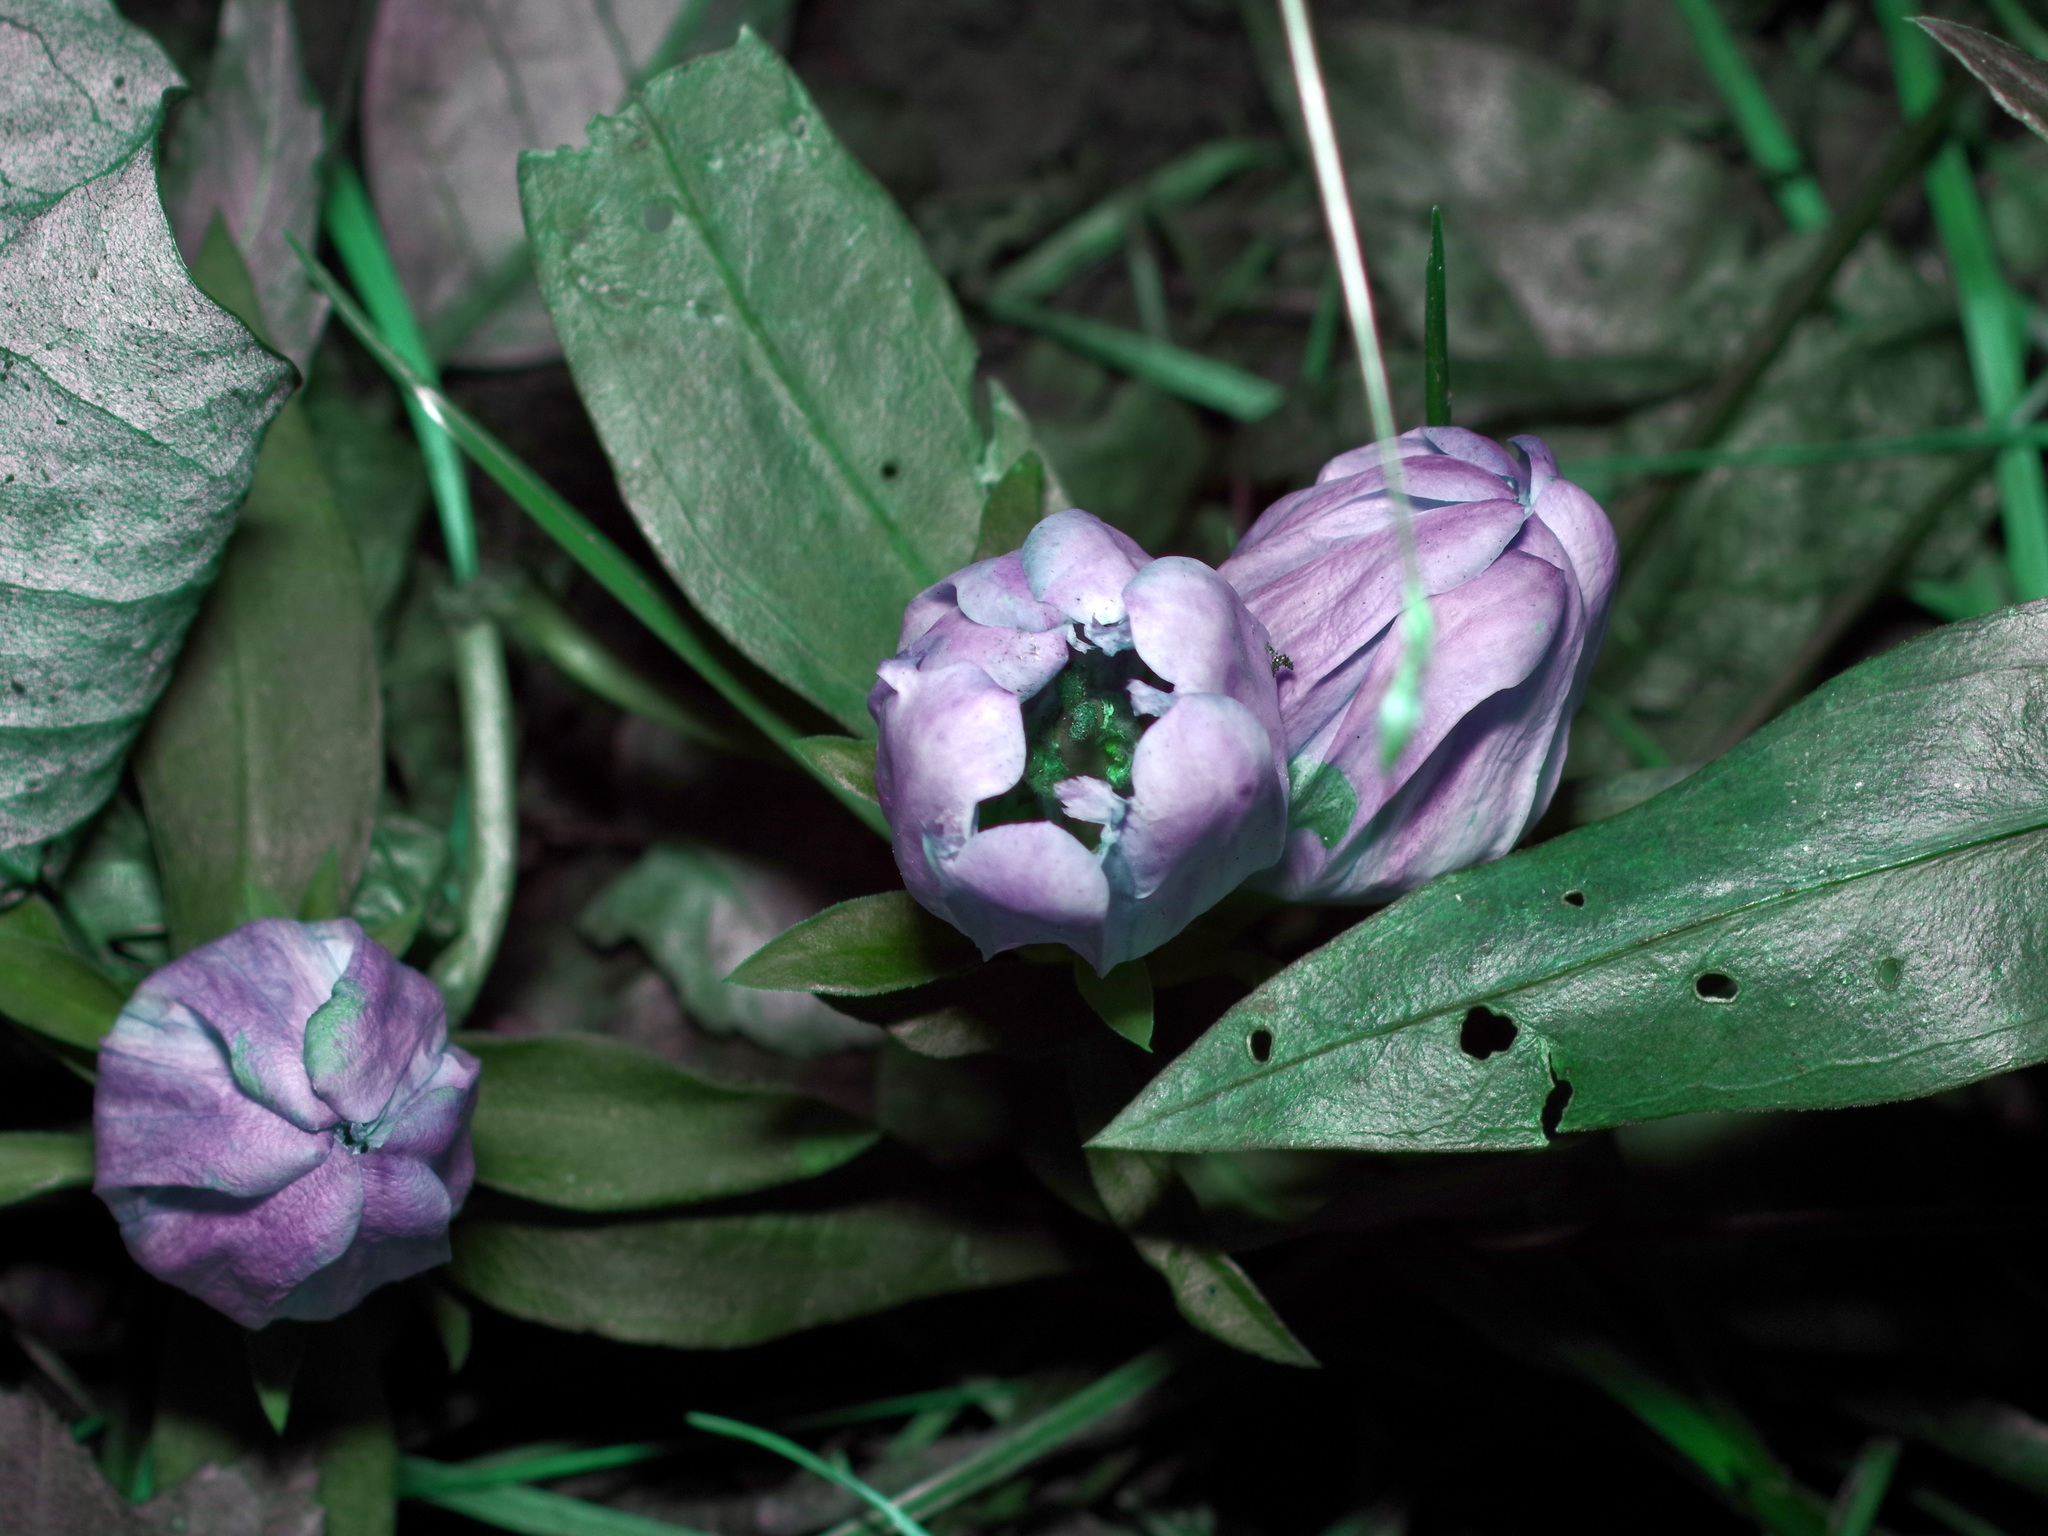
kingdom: Plantae
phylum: Tracheophyta
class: Magnoliopsida
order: Gentianales
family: Gentianaceae
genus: Gentiana
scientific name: Gentiana saponaria
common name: Soapwort gentian
